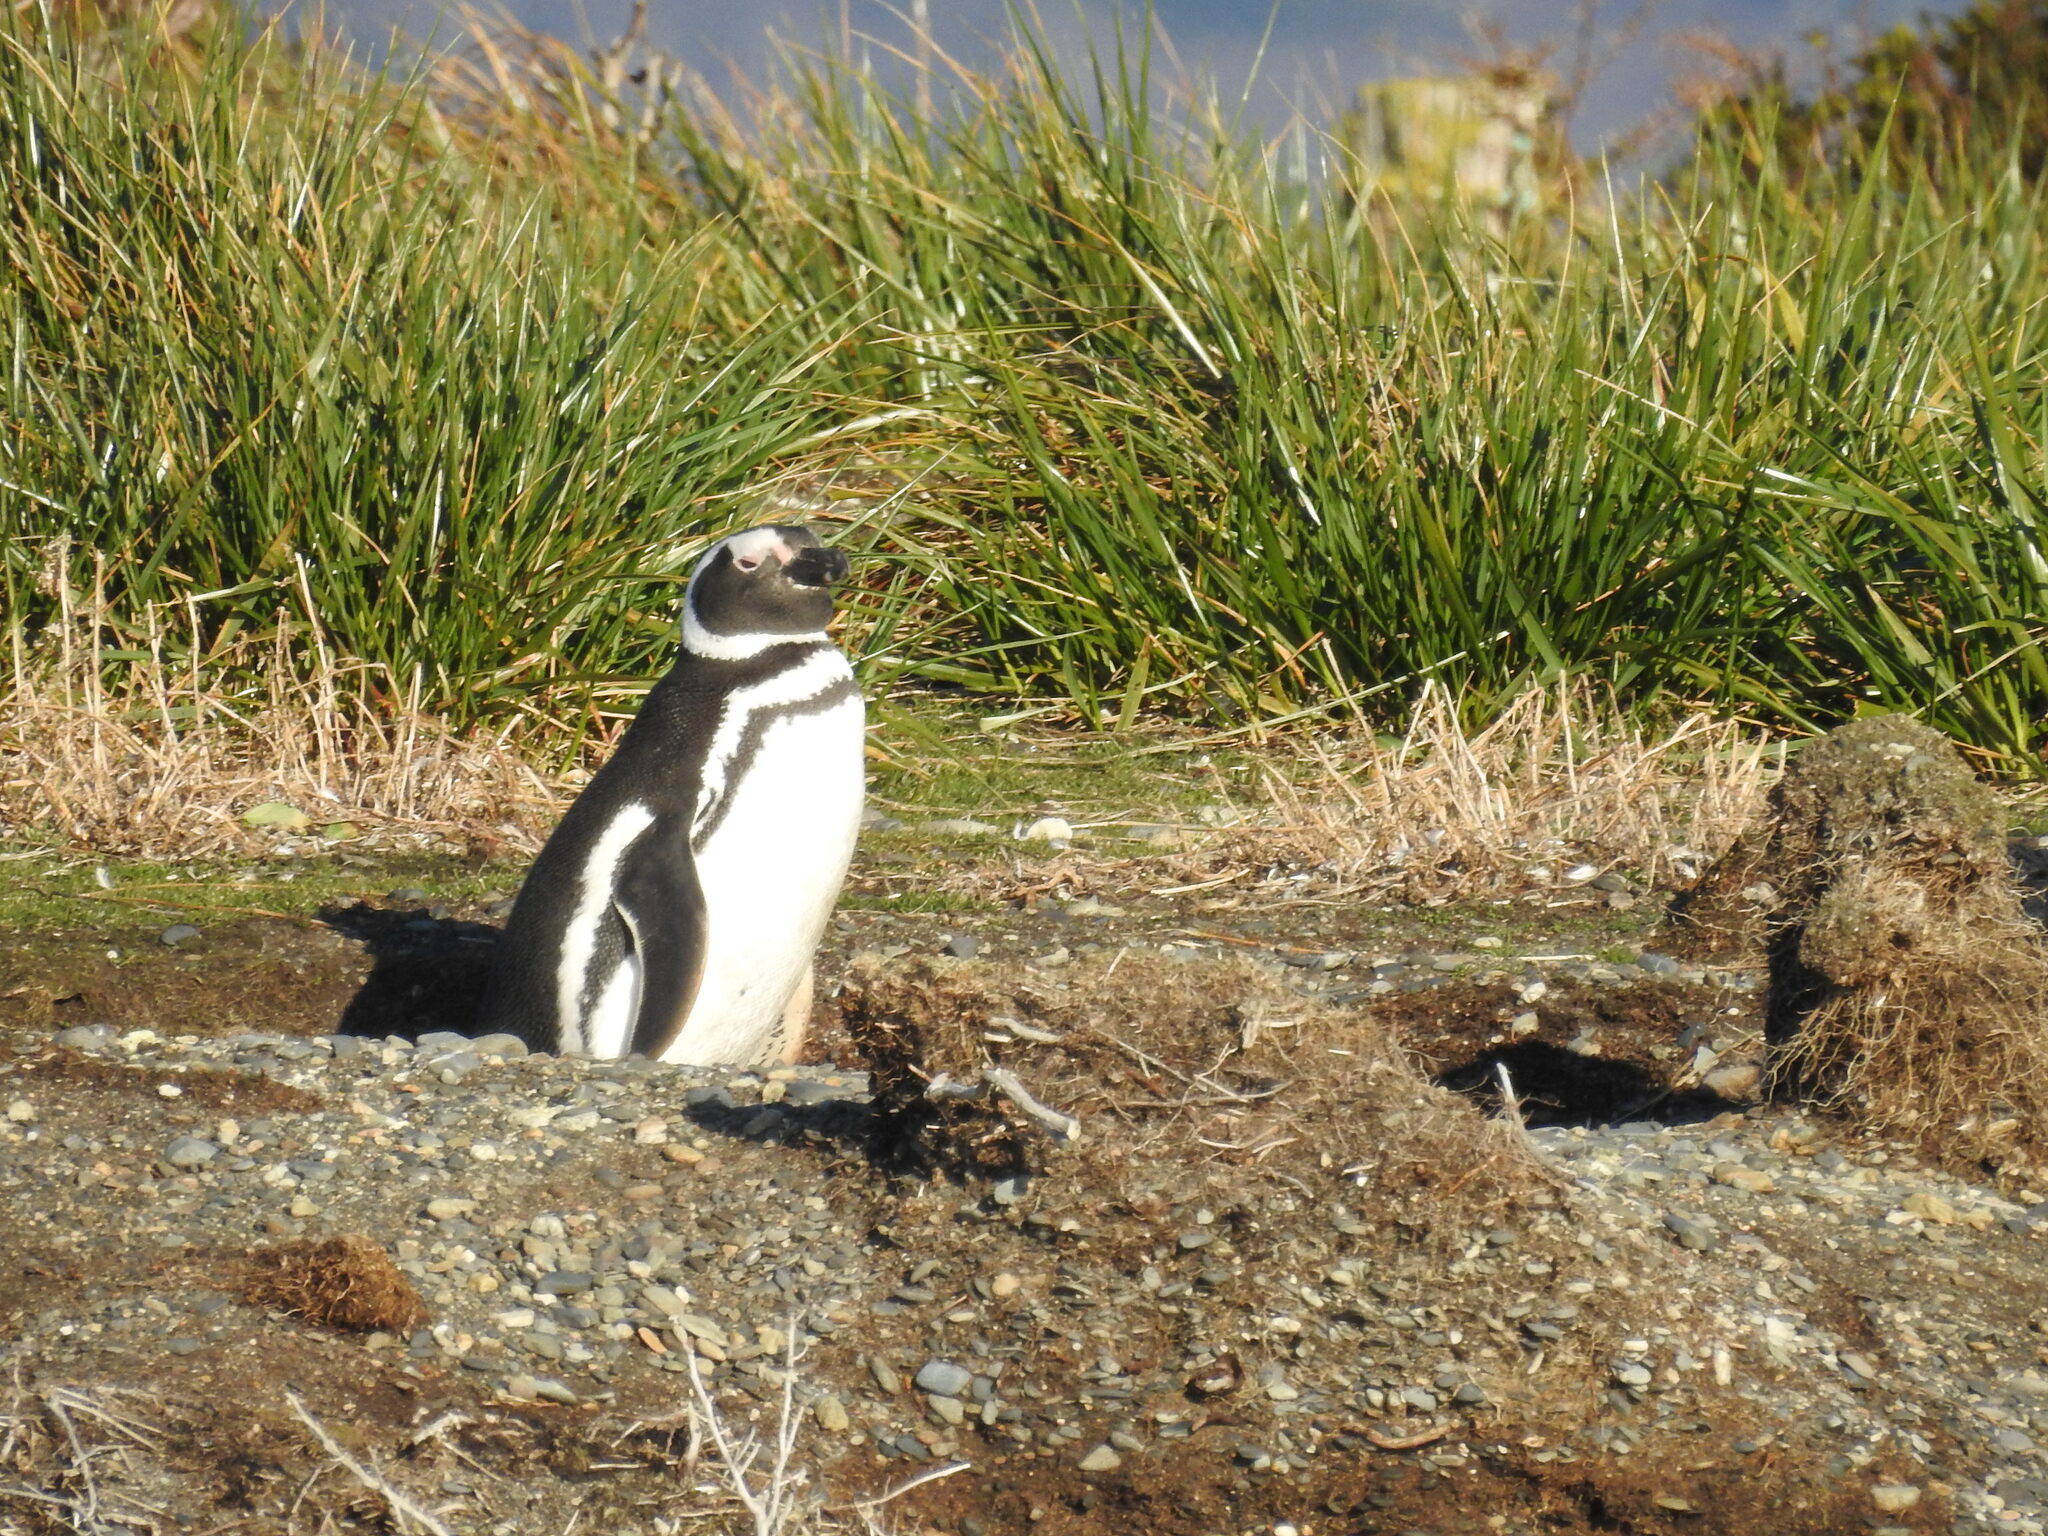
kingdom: Animalia
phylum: Chordata
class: Aves
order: Sphenisciformes
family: Spheniscidae
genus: Spheniscus
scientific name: Spheniscus magellanicus
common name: Magellanic penguin
